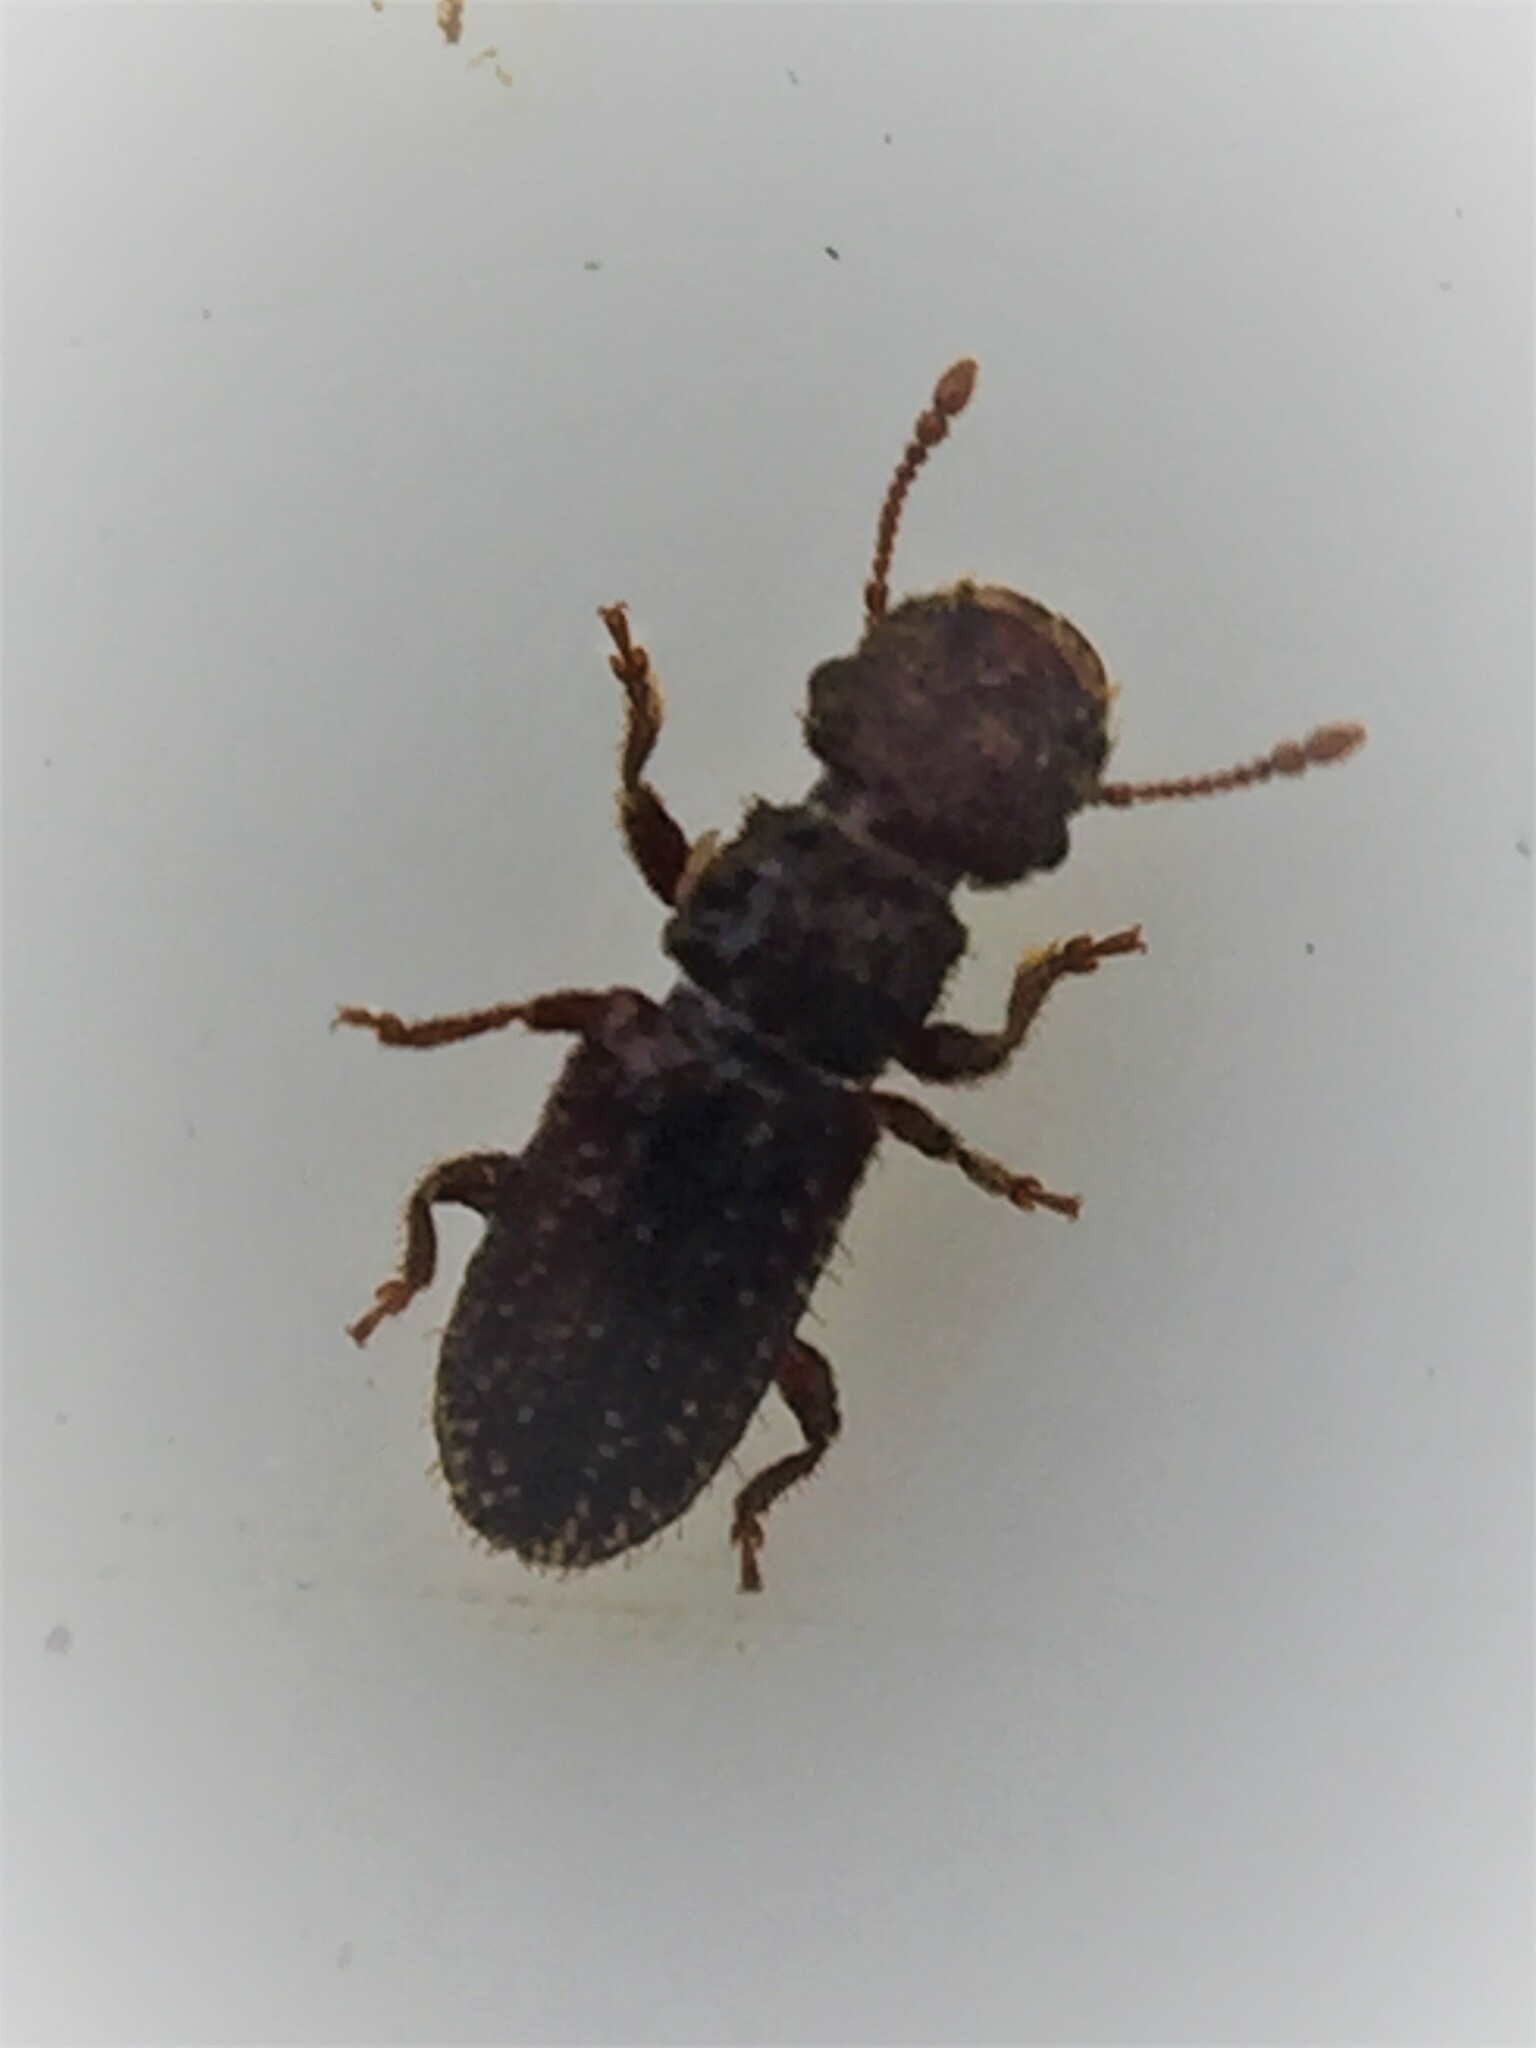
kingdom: Animalia
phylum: Arthropoda
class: Insecta
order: Coleoptera
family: Belidae
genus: Aralius
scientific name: Aralius wollastoni
